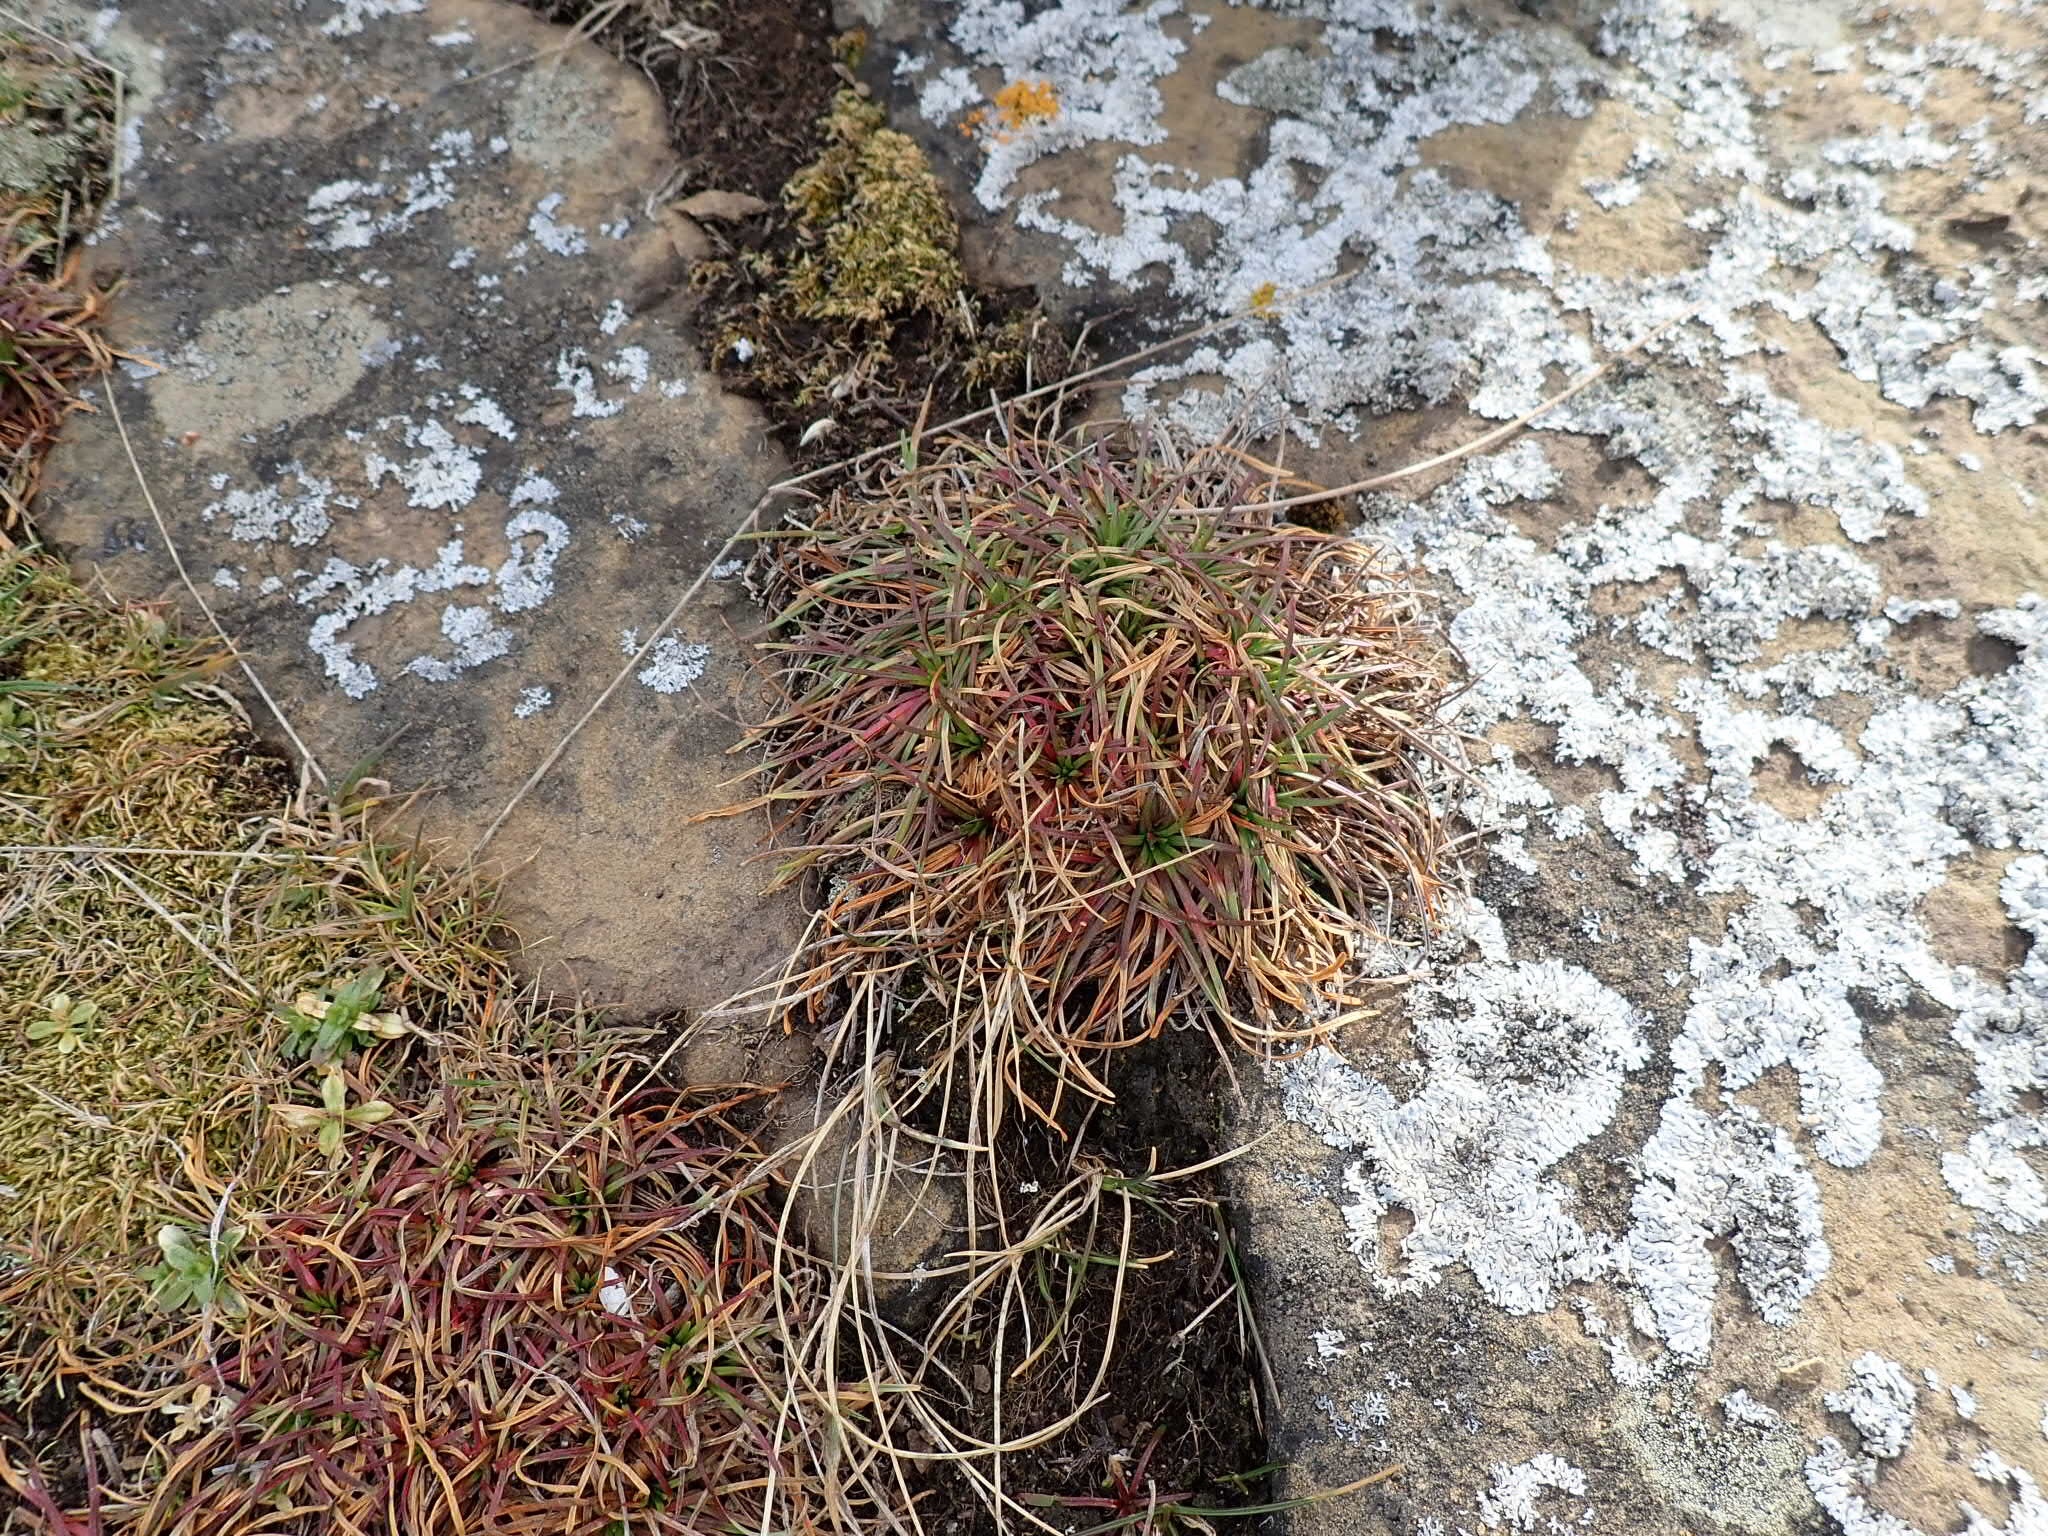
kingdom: Plantae
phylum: Tracheophyta
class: Magnoliopsida
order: Caryophyllales
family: Plumbaginaceae
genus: Armeria
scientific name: Armeria maritima
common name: Thrift
